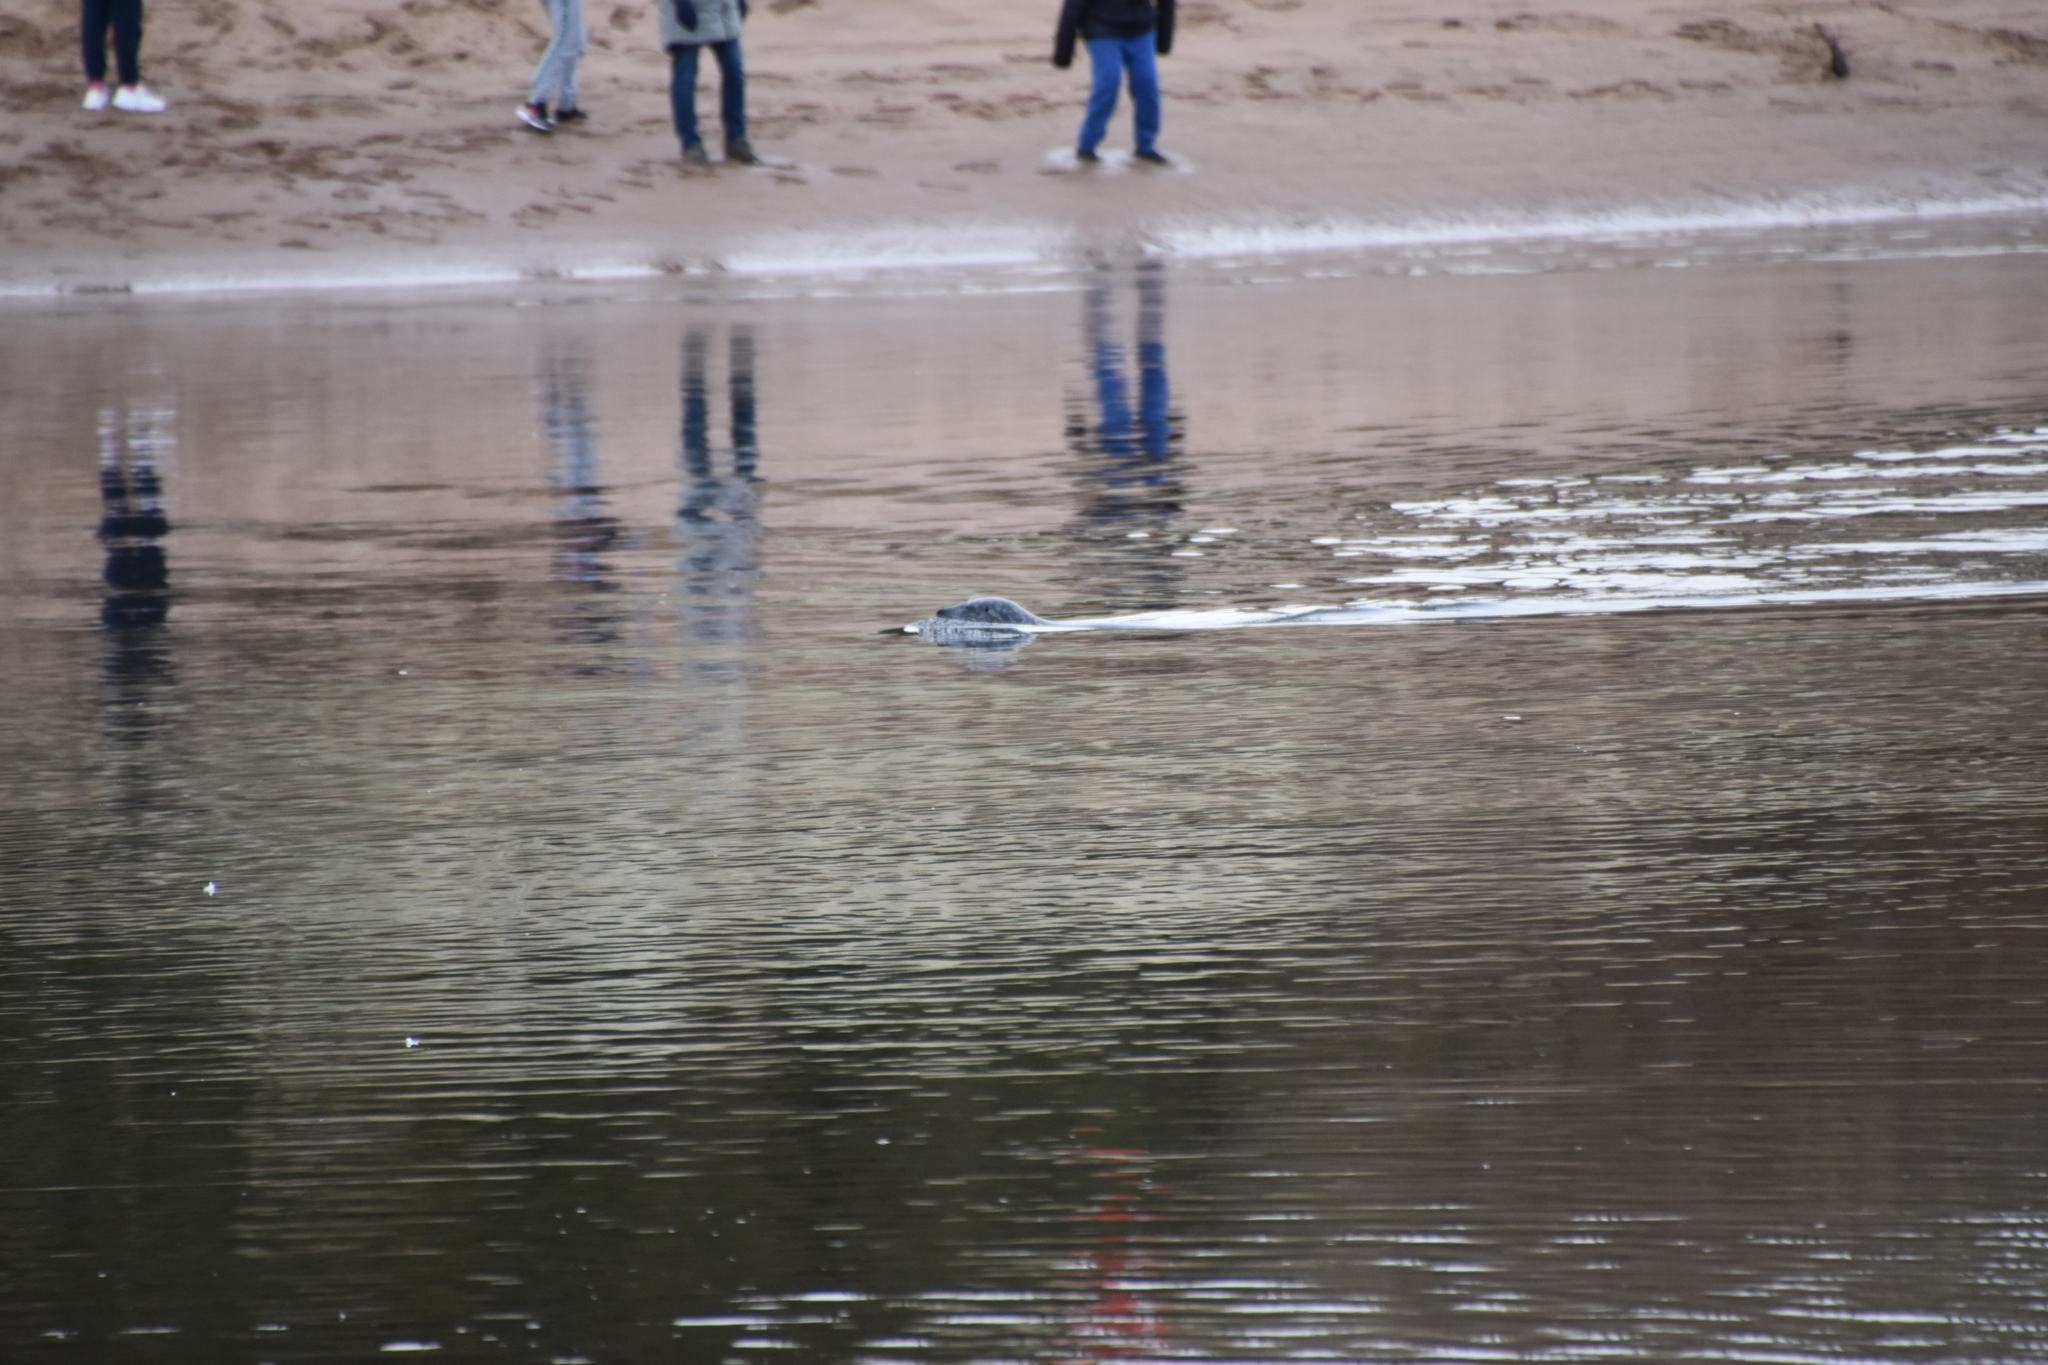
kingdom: Animalia
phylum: Chordata
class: Mammalia
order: Carnivora
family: Phocidae
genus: Phoca
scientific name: Phoca vitulina
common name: Harbor seal
